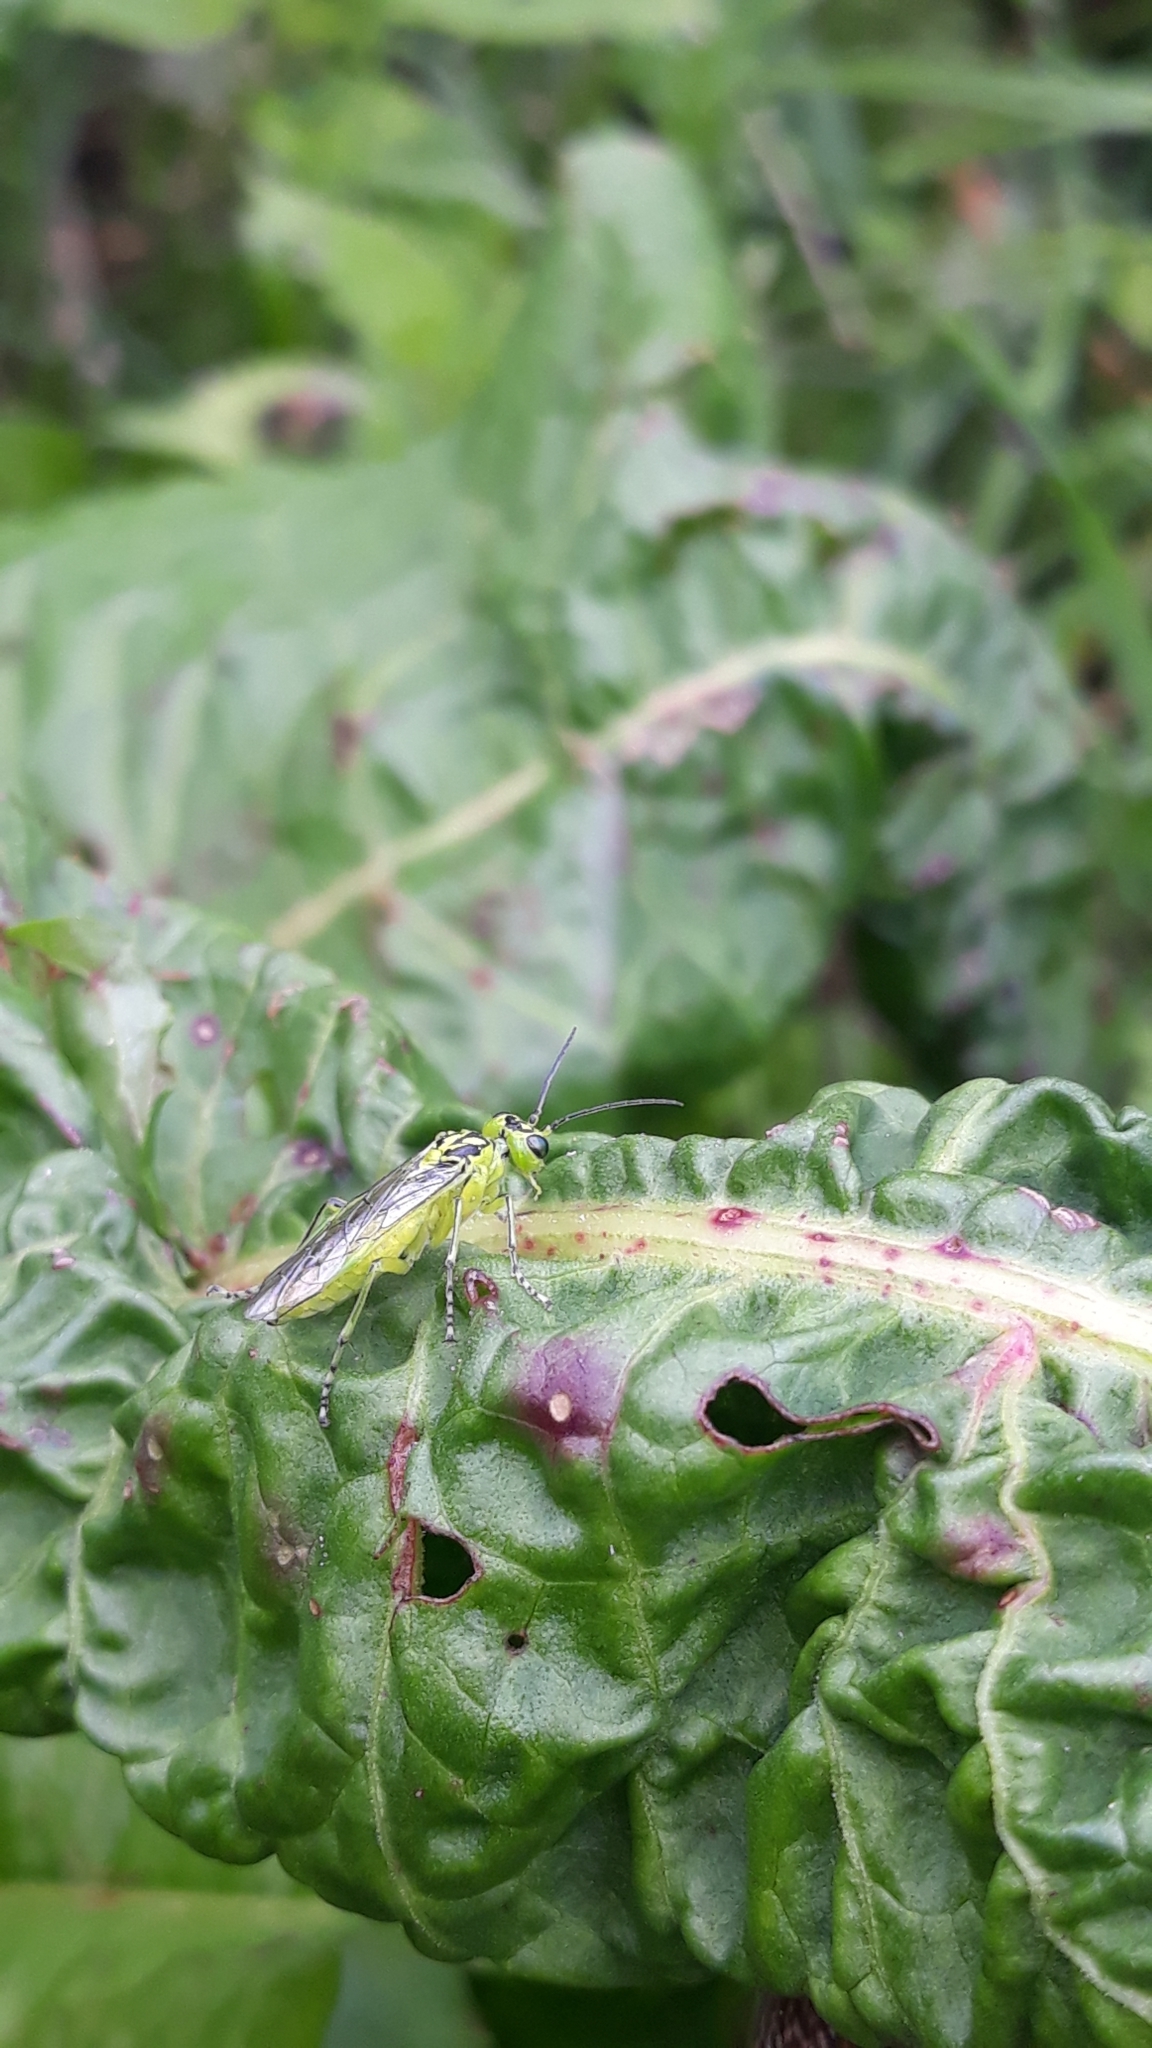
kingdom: Animalia
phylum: Arthropoda
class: Insecta
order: Hymenoptera
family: Tenthredinidae
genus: Rhogogaster
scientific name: Rhogogaster chlorosoma
